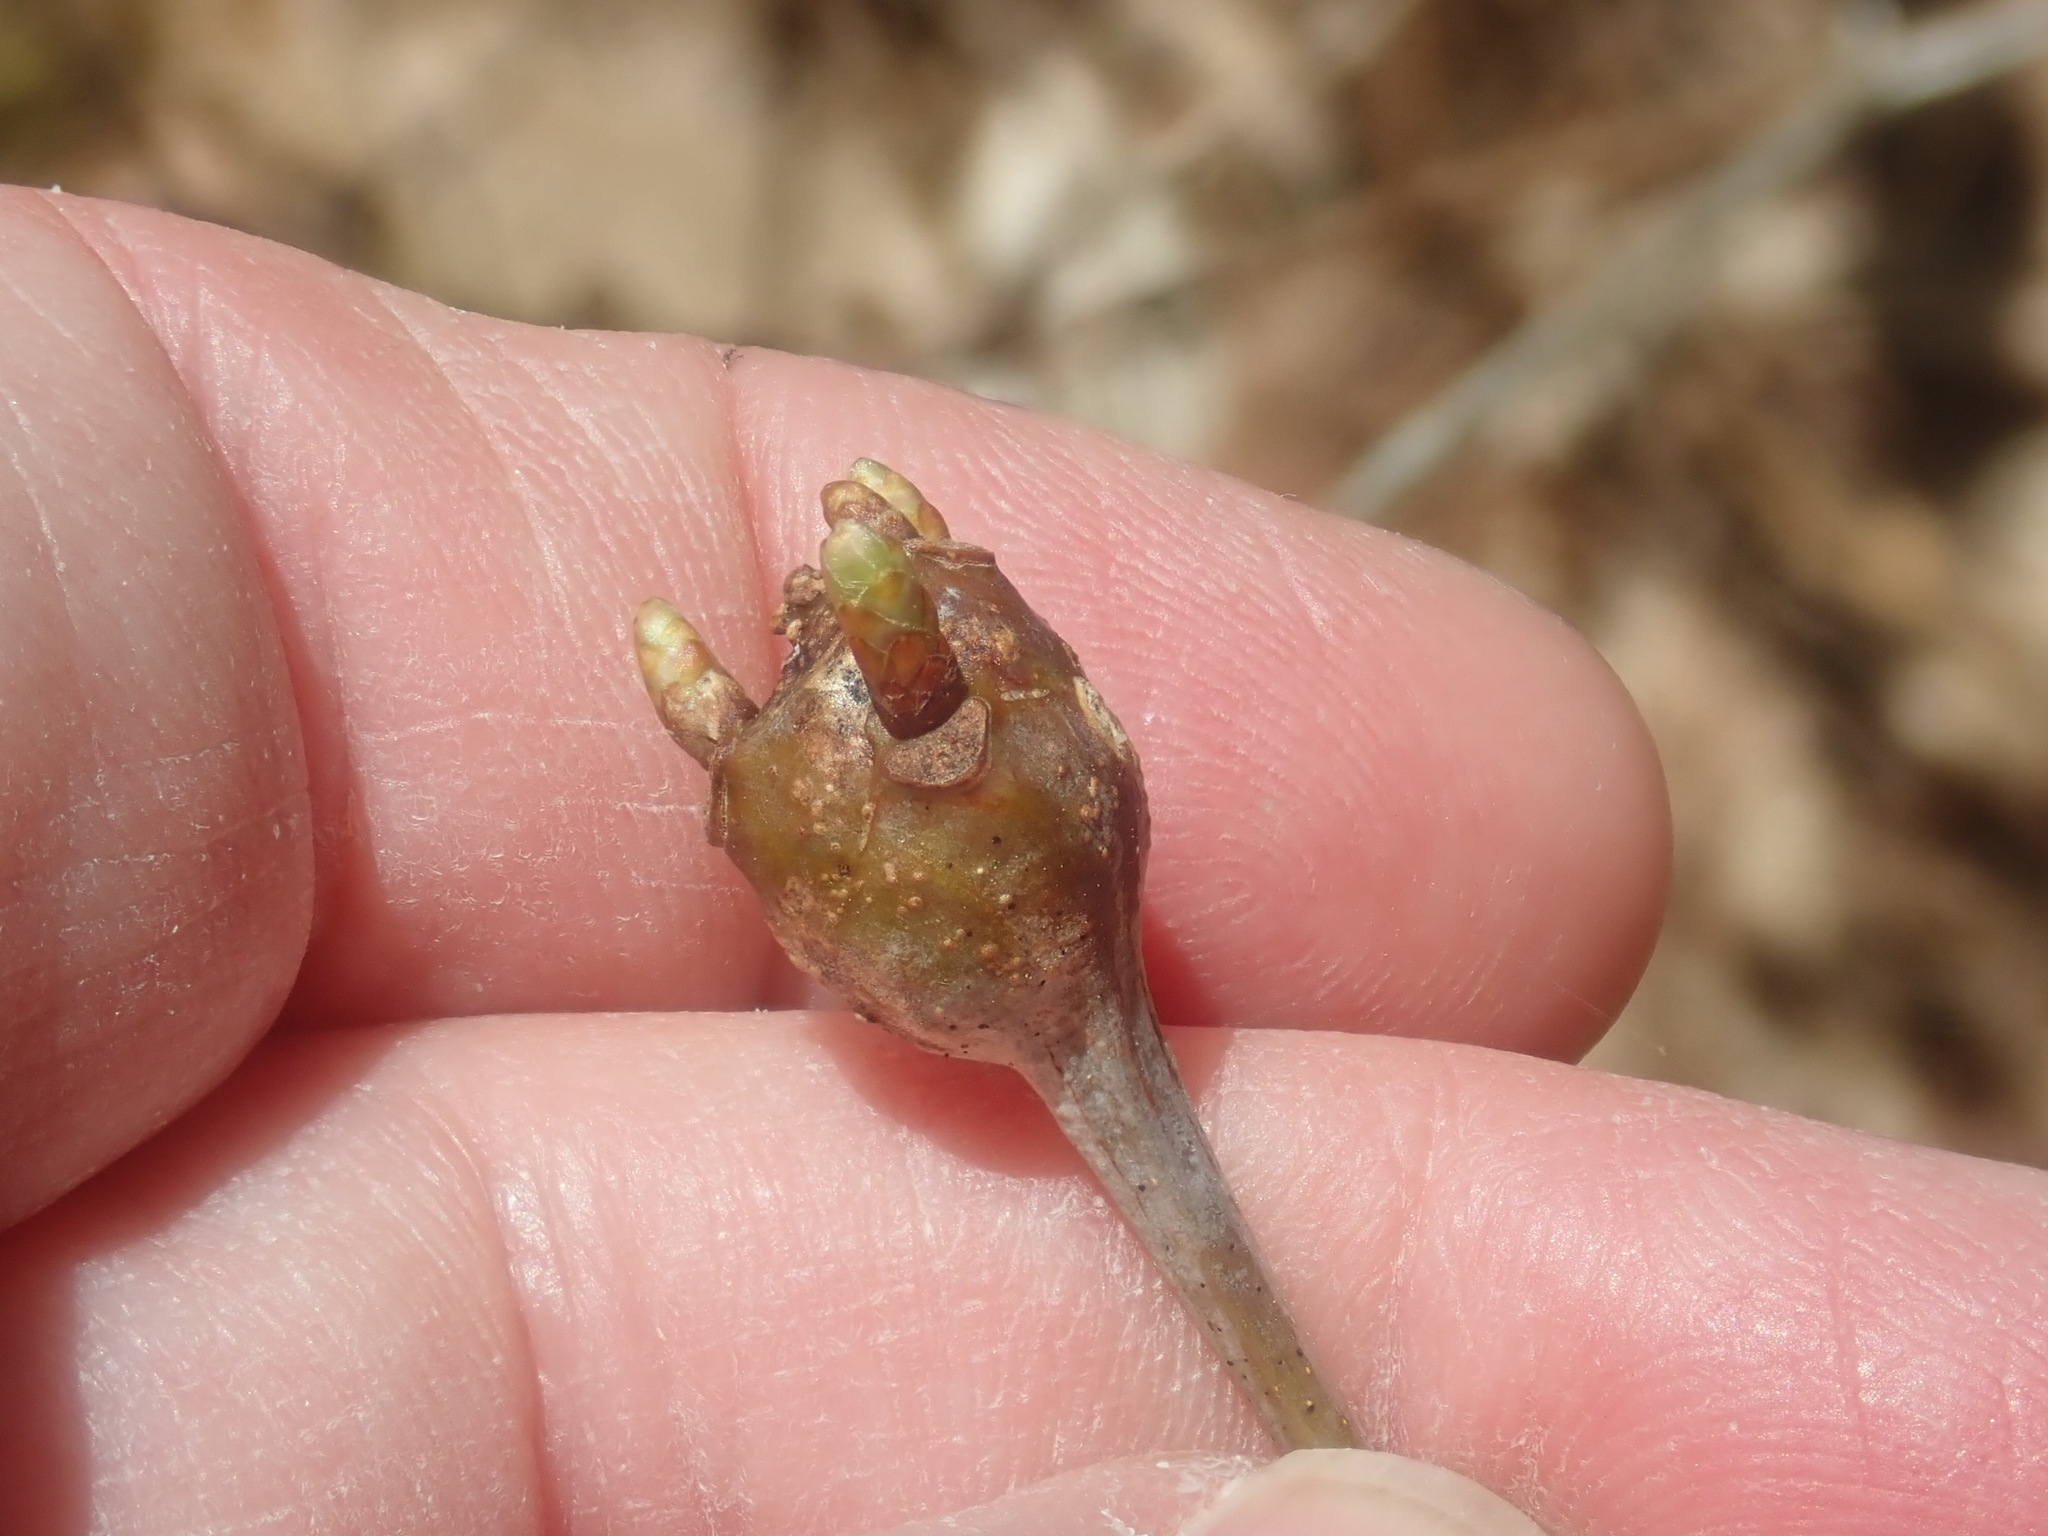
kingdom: Animalia
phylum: Arthropoda
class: Insecta
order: Hymenoptera
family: Cynipidae
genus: Callirhytis
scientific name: Callirhytis clavula
